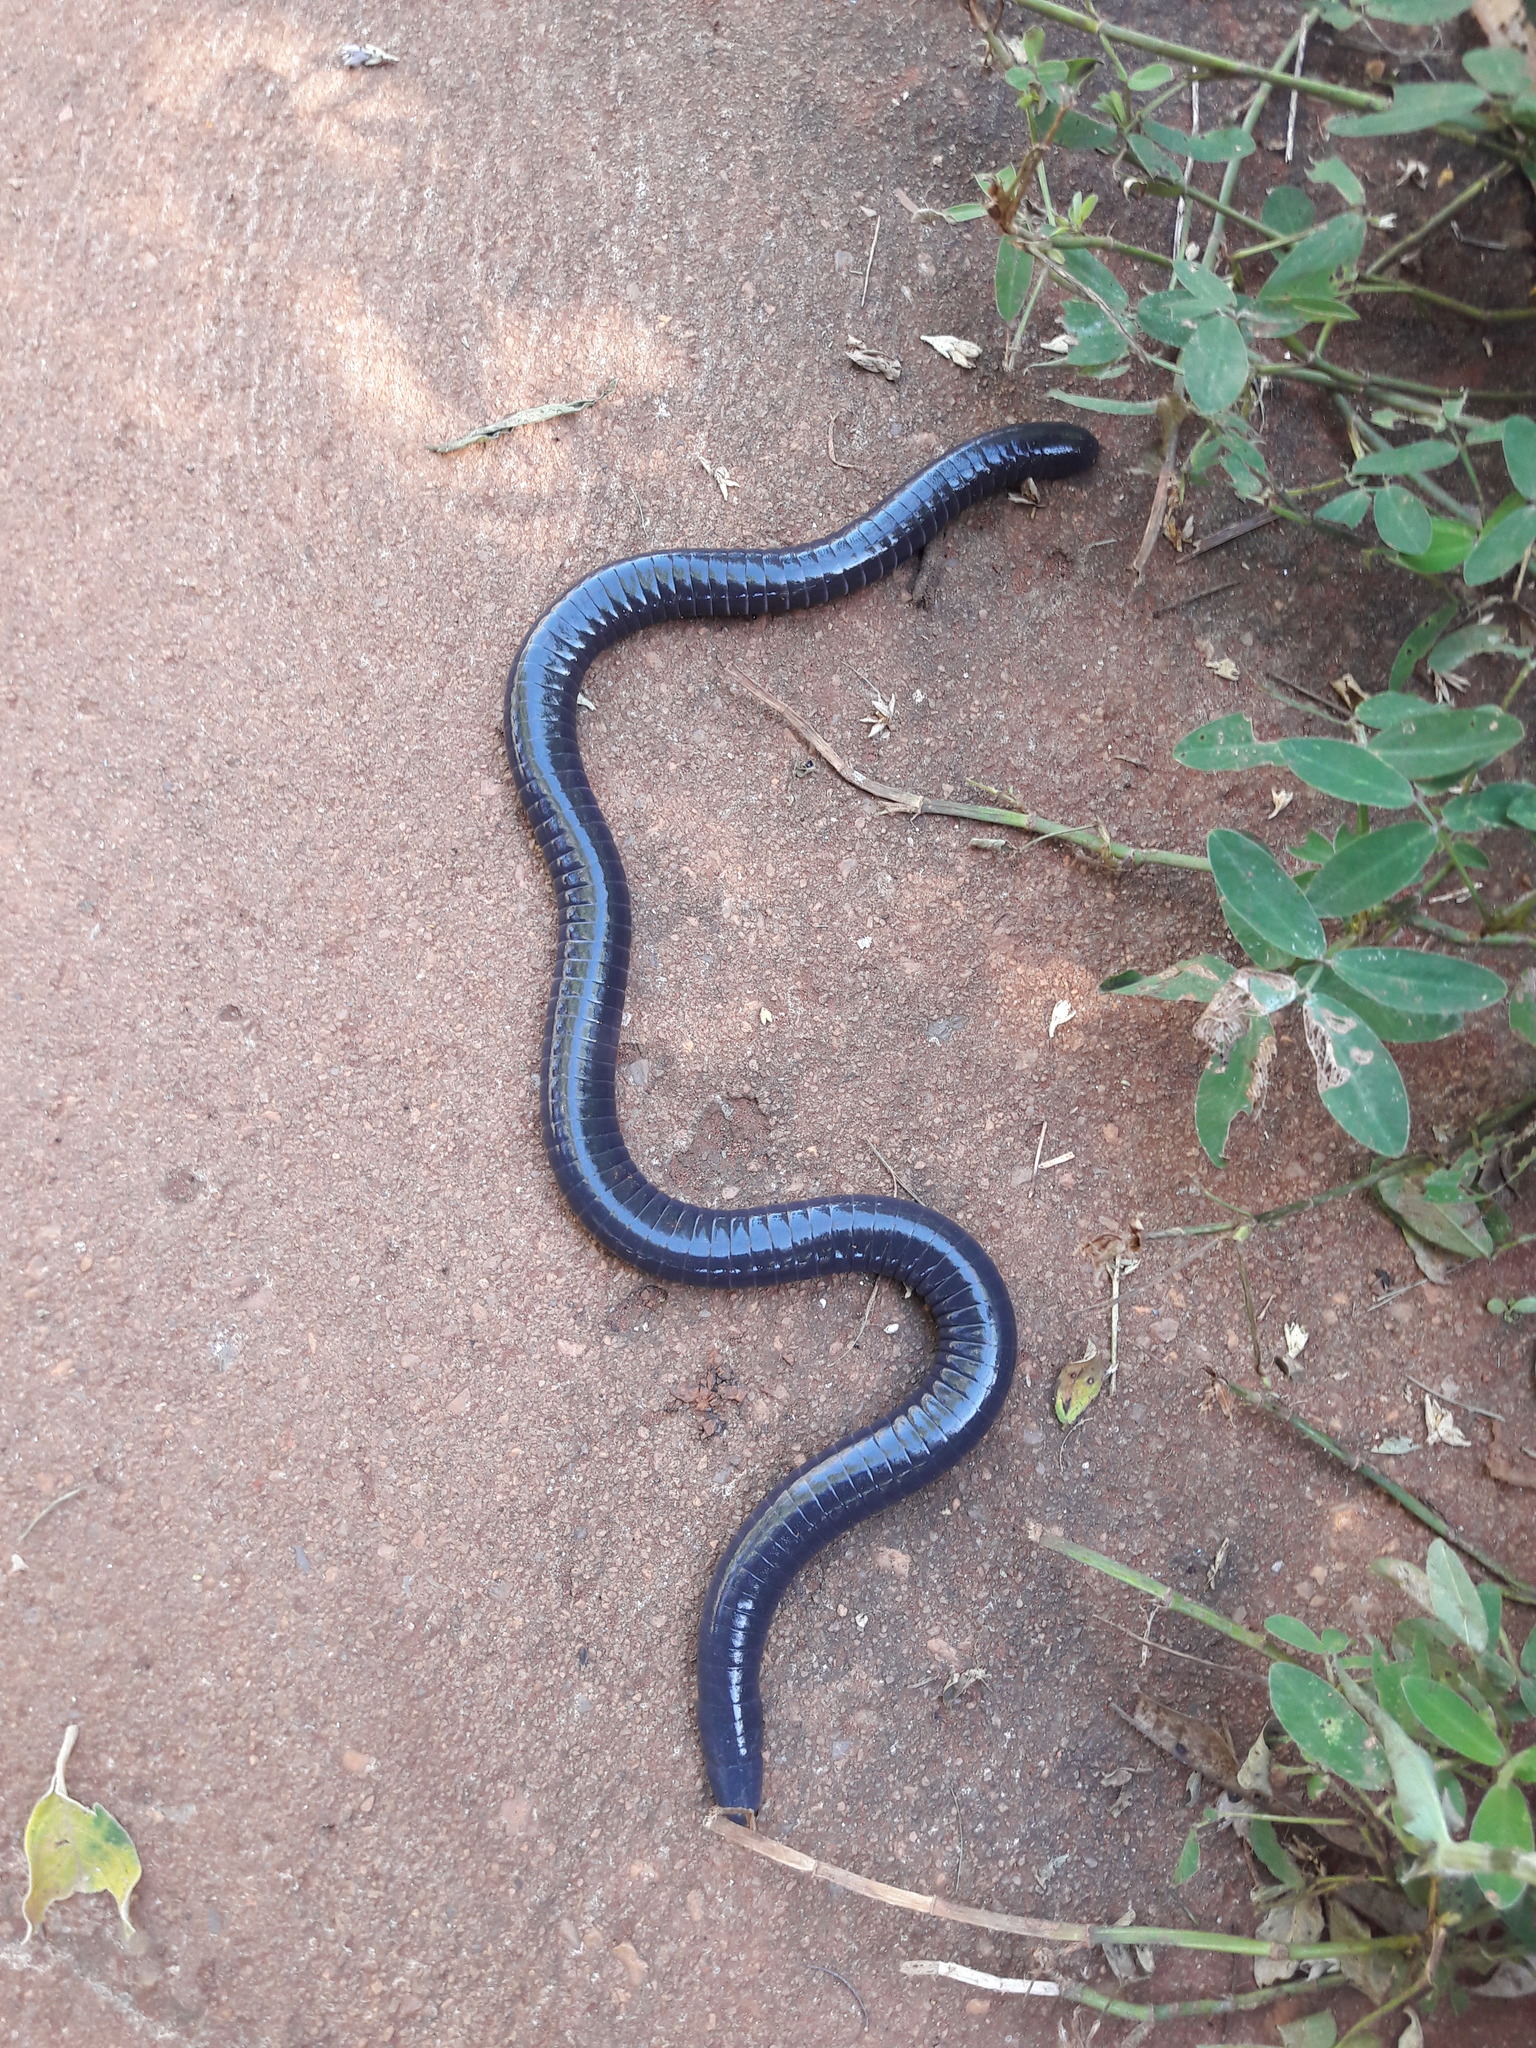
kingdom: Animalia
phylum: Chordata
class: Amphibia
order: Gymnophiona
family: Siphonopidae
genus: Siphonops
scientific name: Siphonops paulensis
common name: Boettger's caecilian
